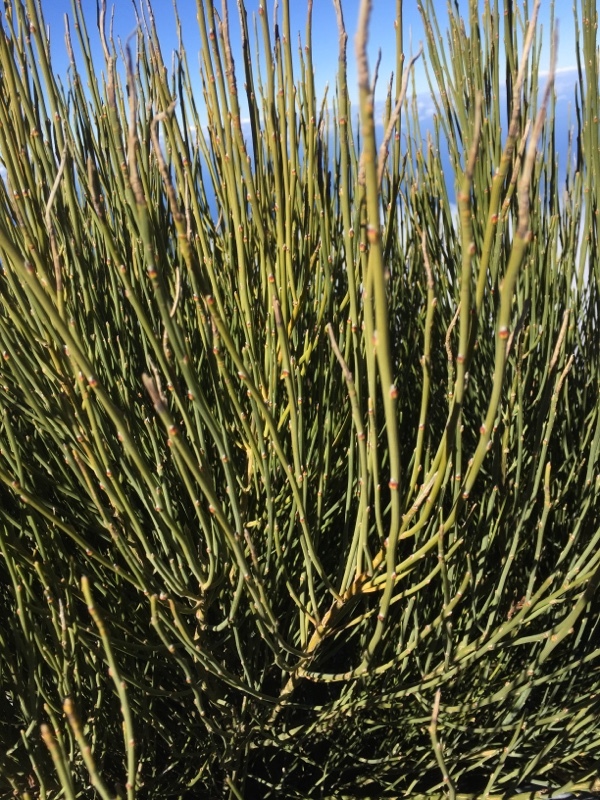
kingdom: Plantae
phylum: Tracheophyta
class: Magnoliopsida
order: Fabales
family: Fabaceae
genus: Cytisus
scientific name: Cytisus supranubius
